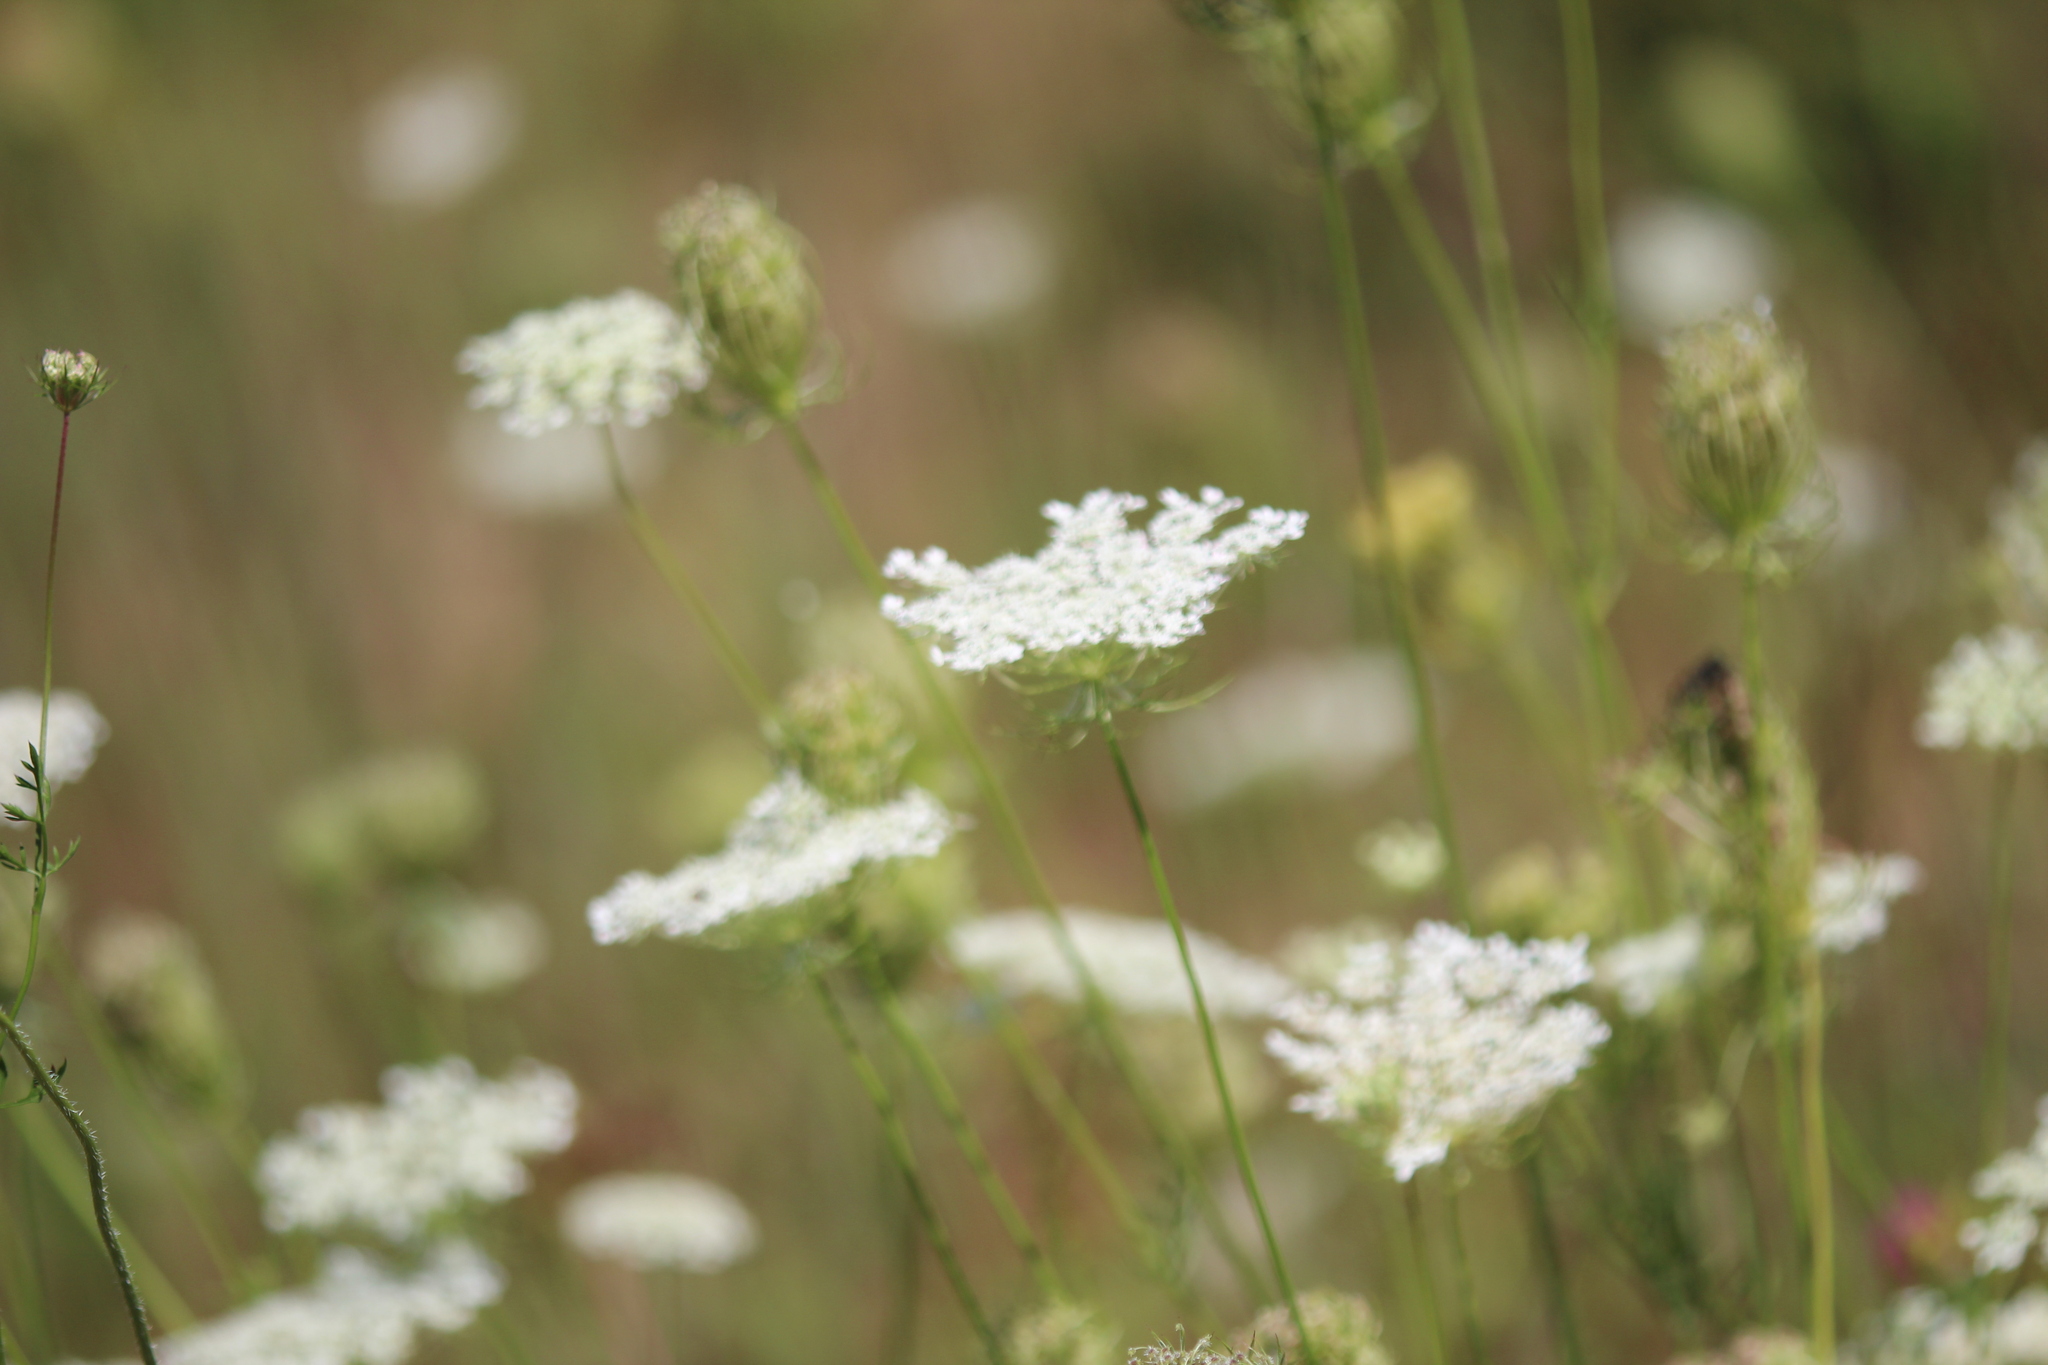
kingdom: Plantae
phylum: Tracheophyta
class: Magnoliopsida
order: Apiales
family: Apiaceae
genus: Daucus
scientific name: Daucus carota
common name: Wild carrot
